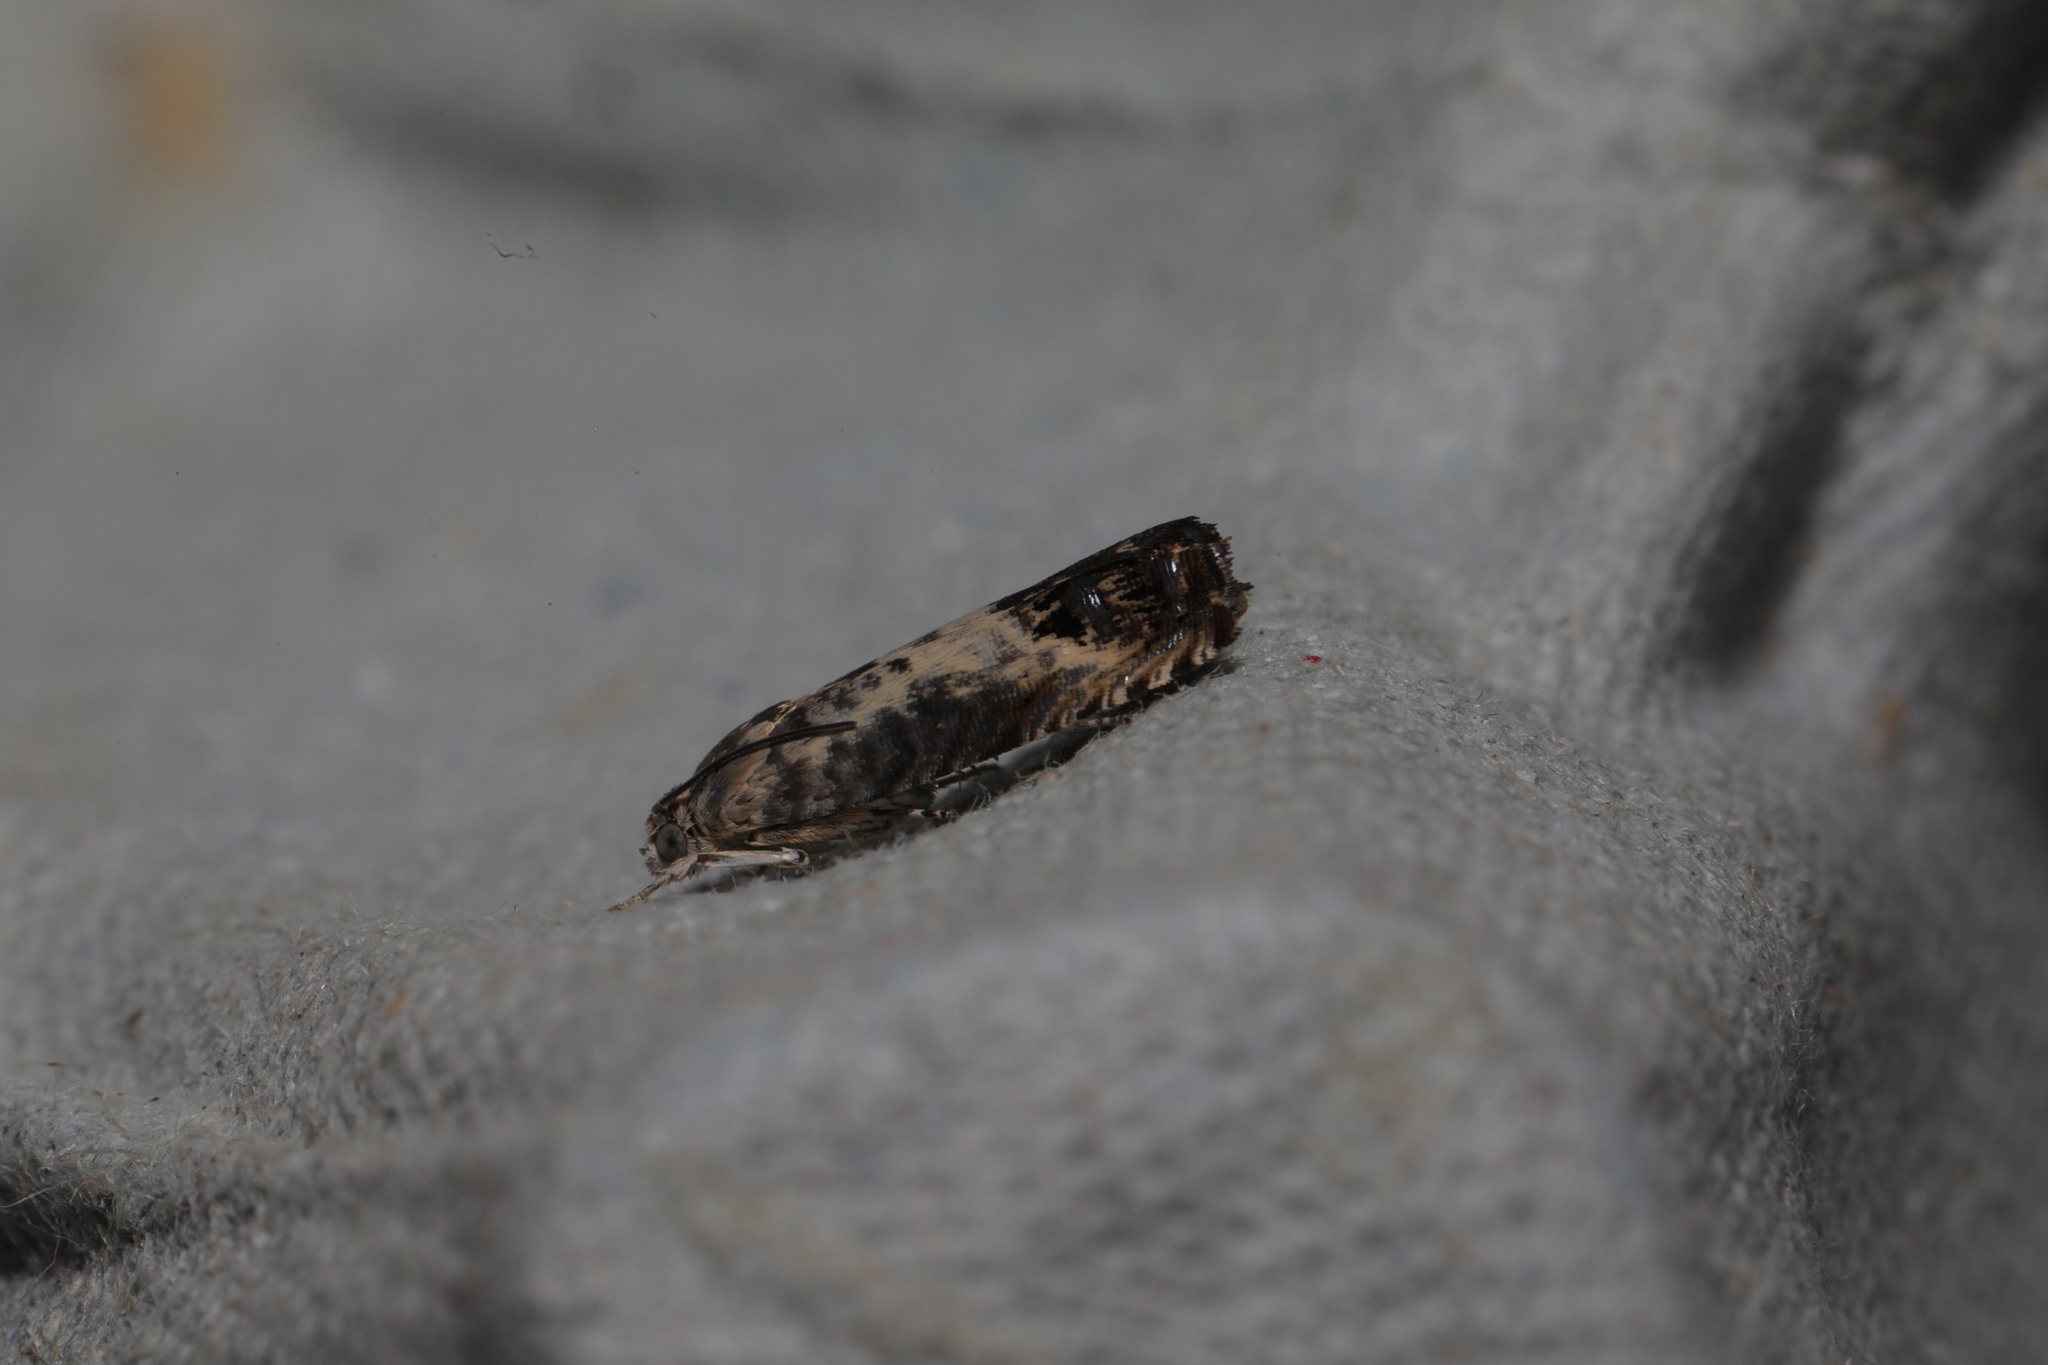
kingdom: Animalia
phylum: Arthropoda
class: Insecta
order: Lepidoptera
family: Tortricidae
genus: Pammene
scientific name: Pammene fasciana
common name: Acorn piercer
